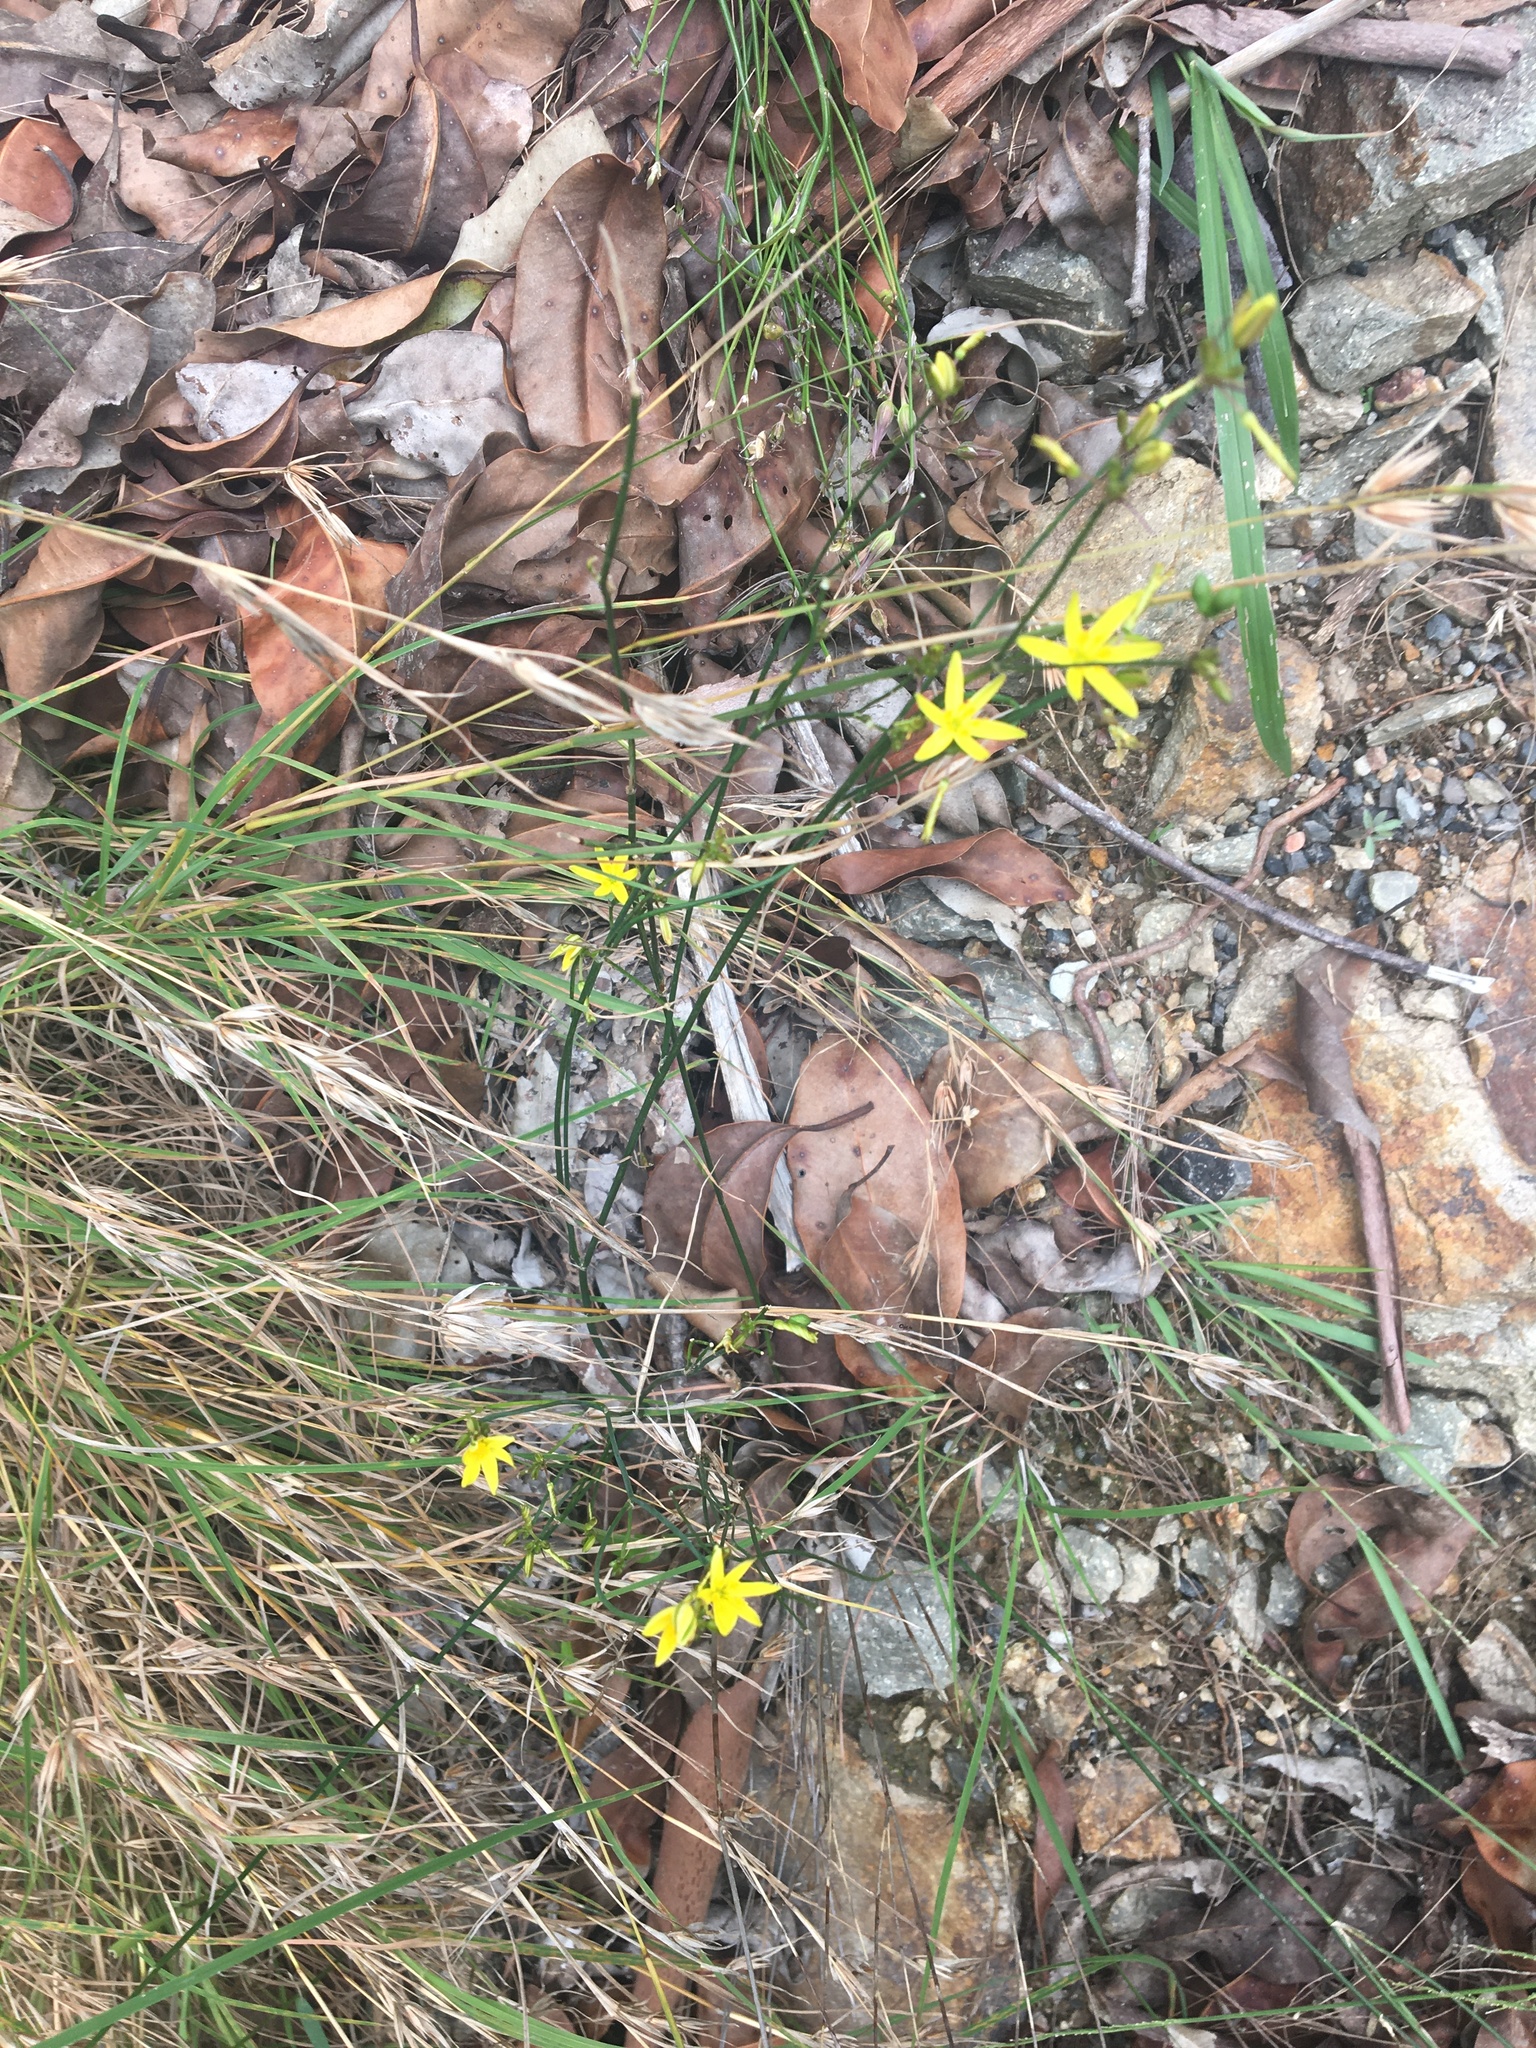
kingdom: Plantae
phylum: Tracheophyta
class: Liliopsida
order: Asparagales
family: Asphodelaceae
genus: Tricoryne
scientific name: Tricoryne elatior
